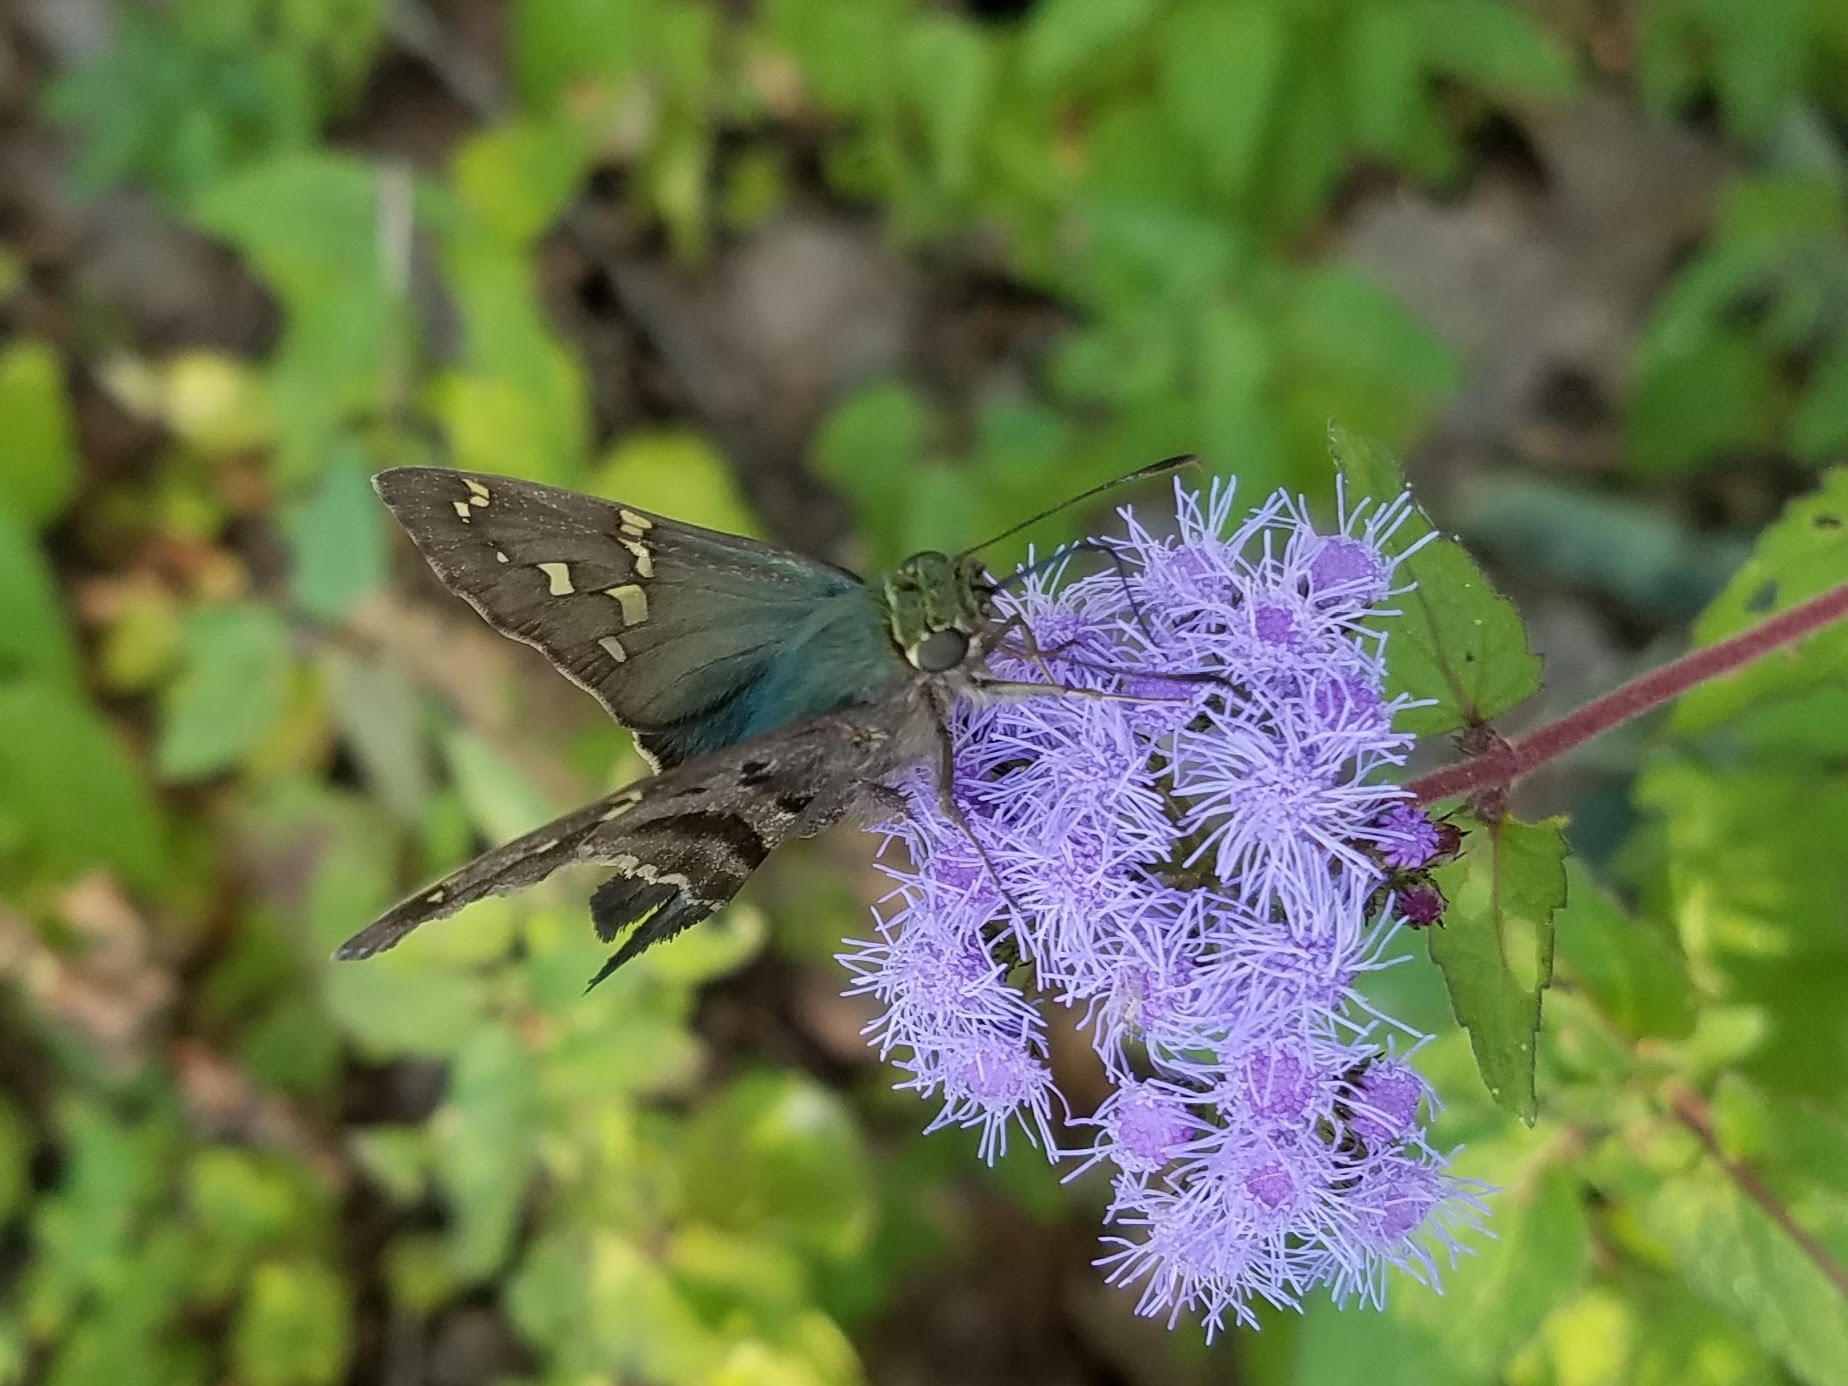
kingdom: Animalia
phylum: Arthropoda
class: Insecta
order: Lepidoptera
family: Hesperiidae
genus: Urbanus
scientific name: Urbanus proteus
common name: Long-tailed skipper
